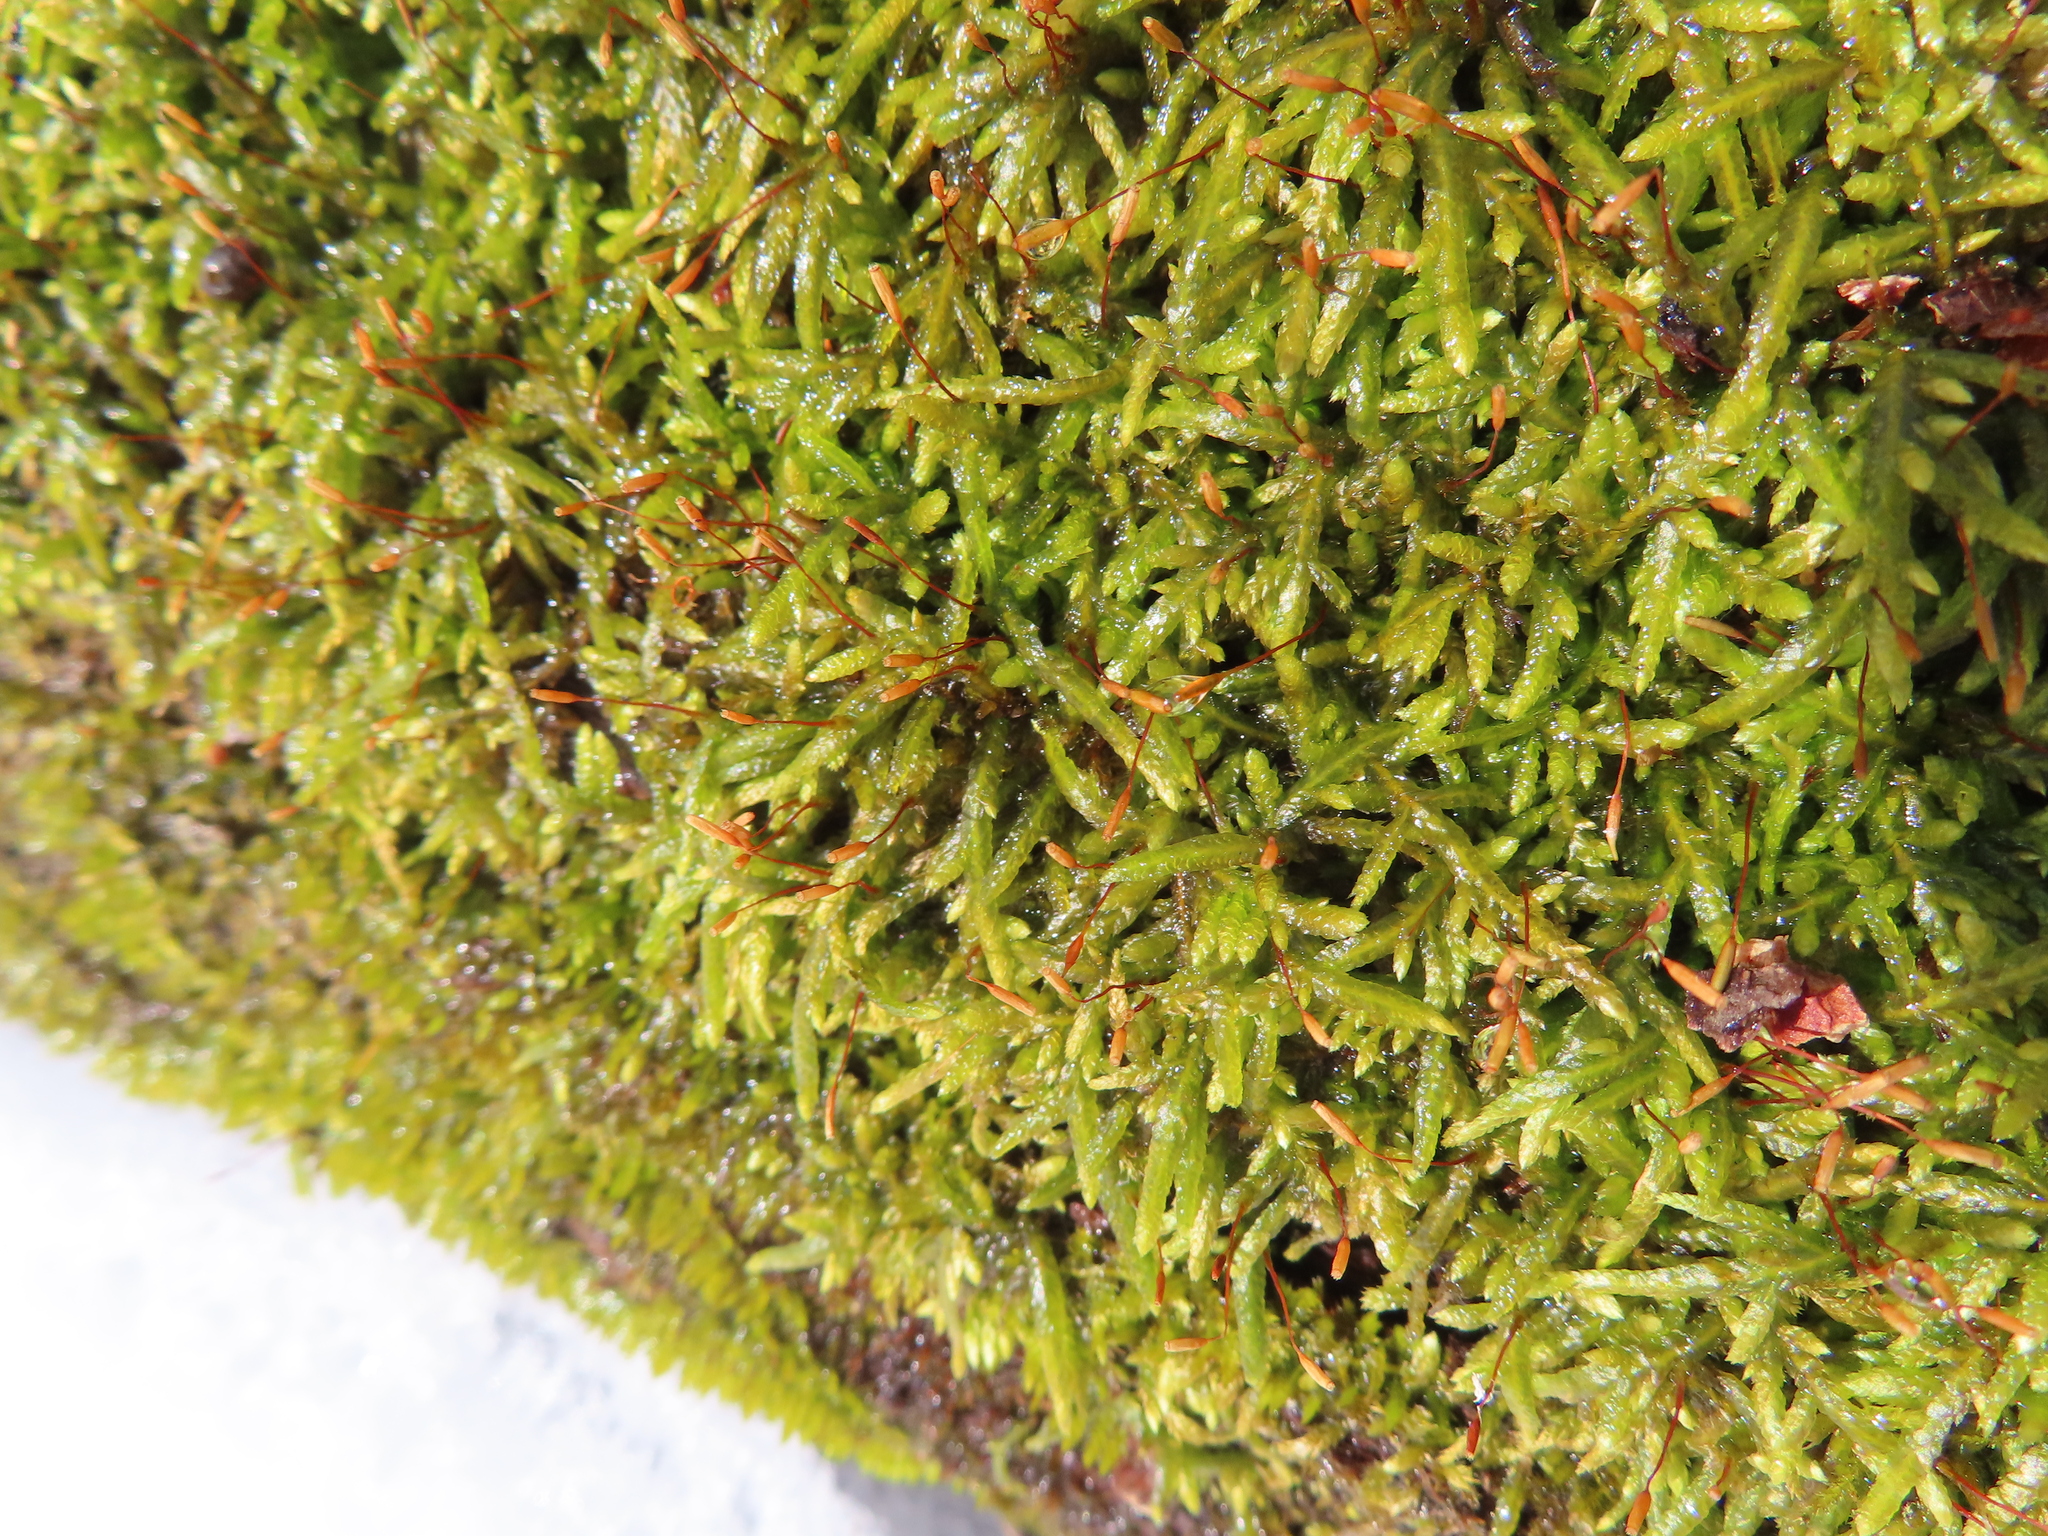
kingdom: Plantae
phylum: Bryophyta
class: Bryopsida
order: Hypnales
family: Entodontaceae
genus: Entodon
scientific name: Entodon seductrix
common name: Round-stemmed entodon moss
